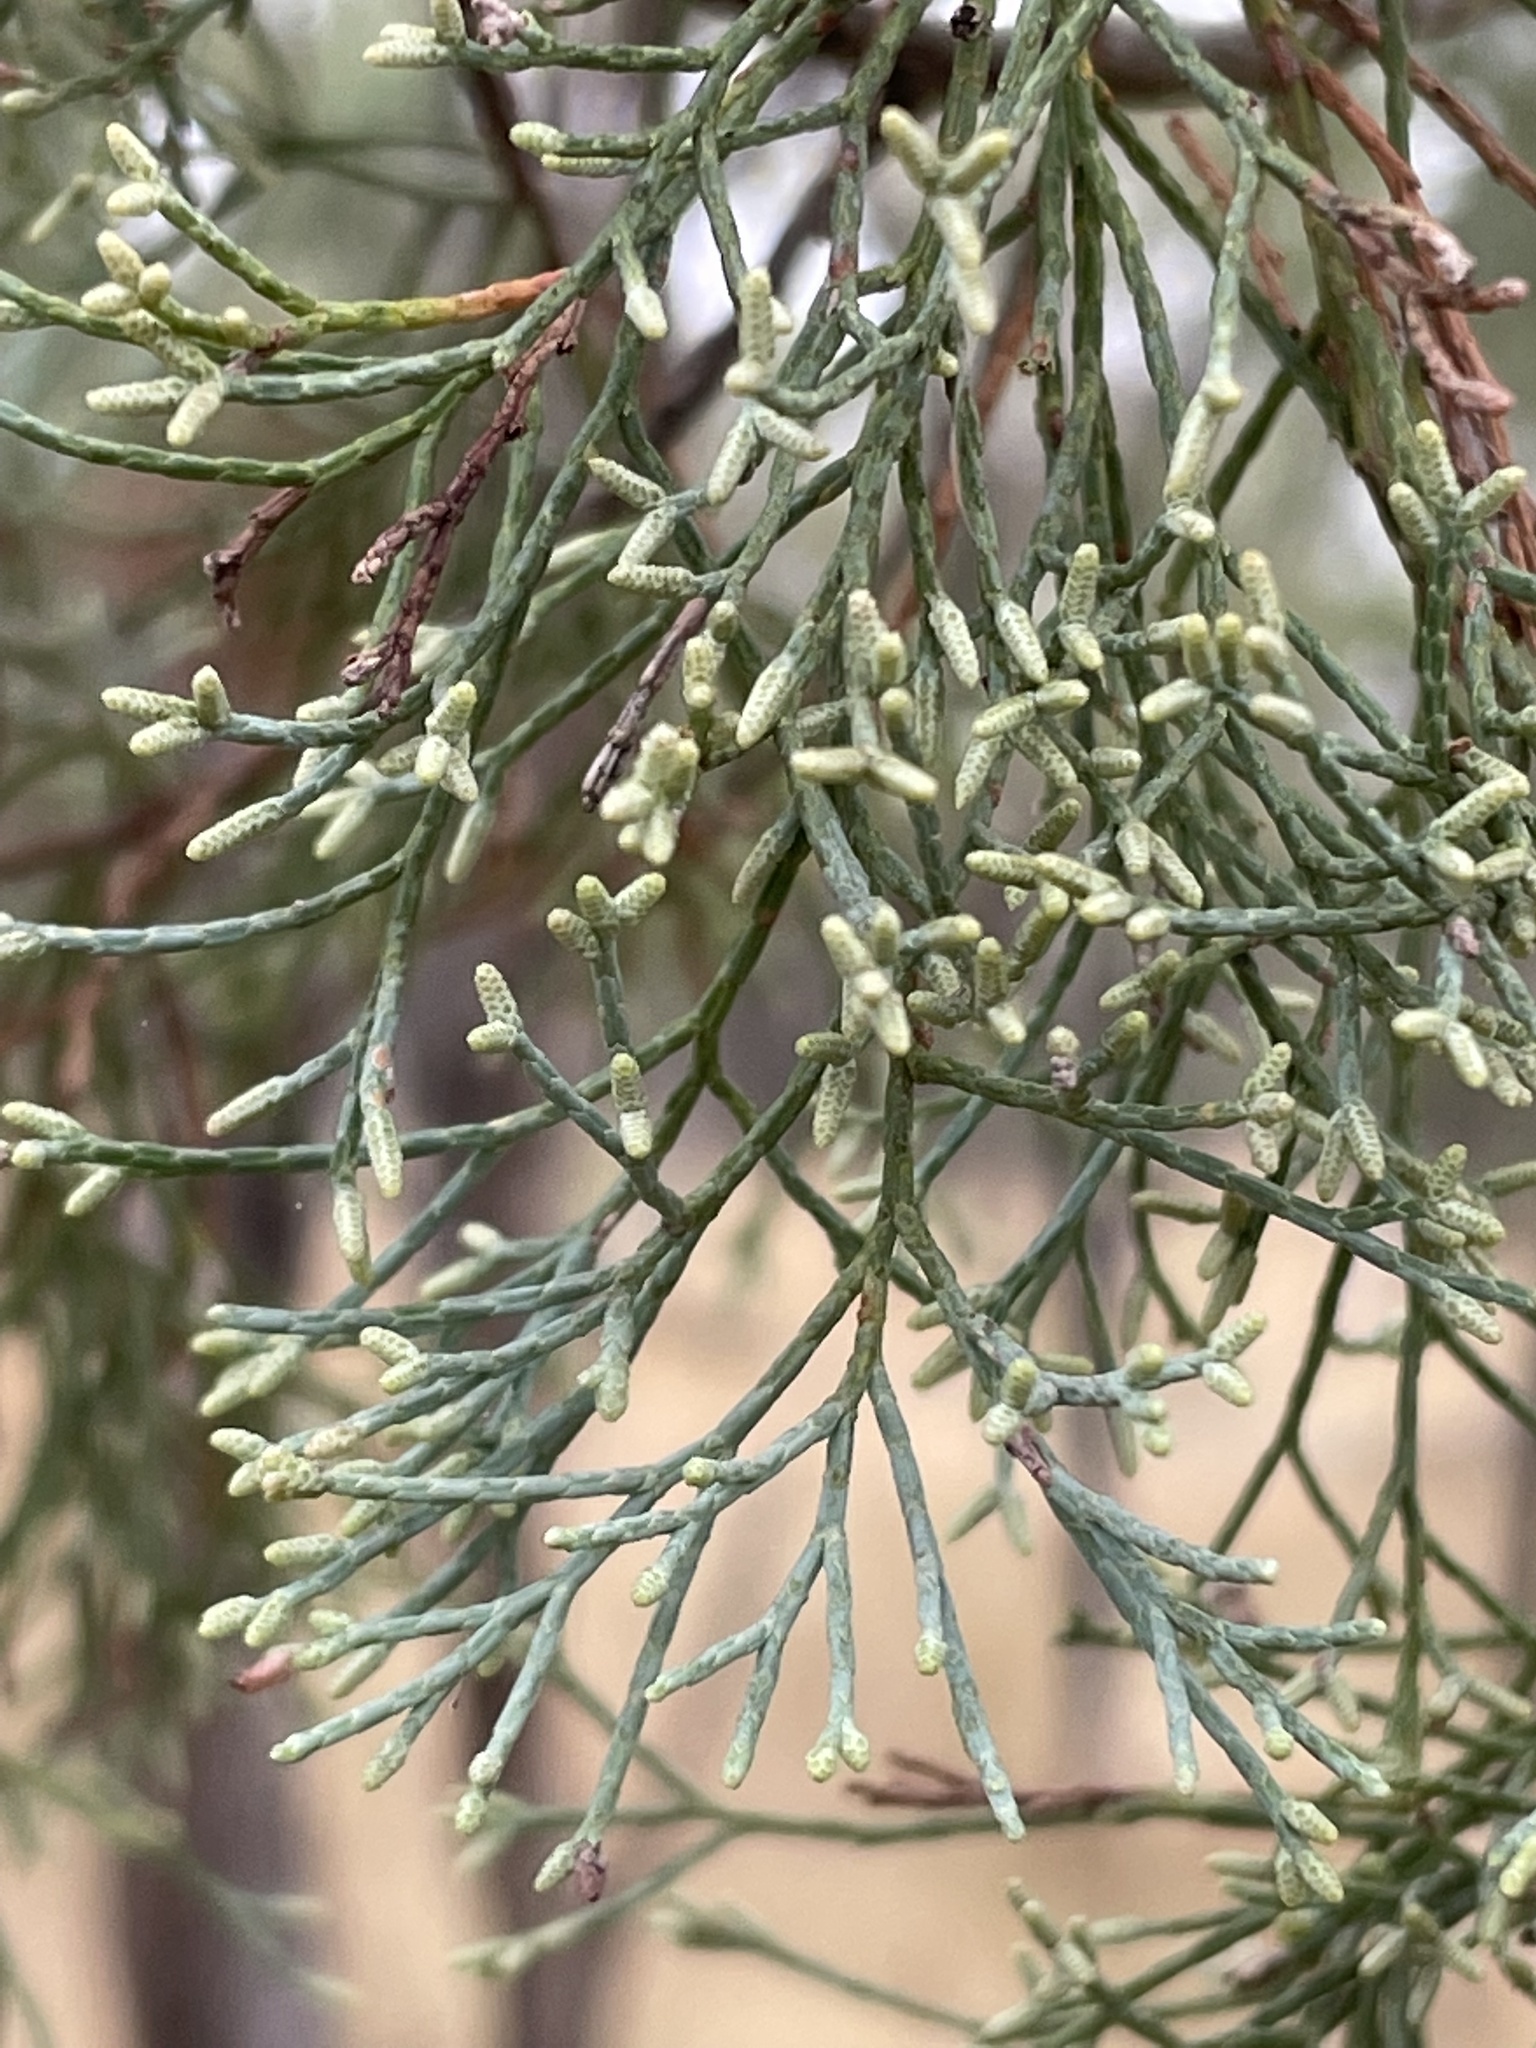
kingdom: Plantae
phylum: Tracheophyta
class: Pinopsida
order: Pinales
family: Cupressaceae
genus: Callitris
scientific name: Callitris columellaris
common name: White cypress-pine
